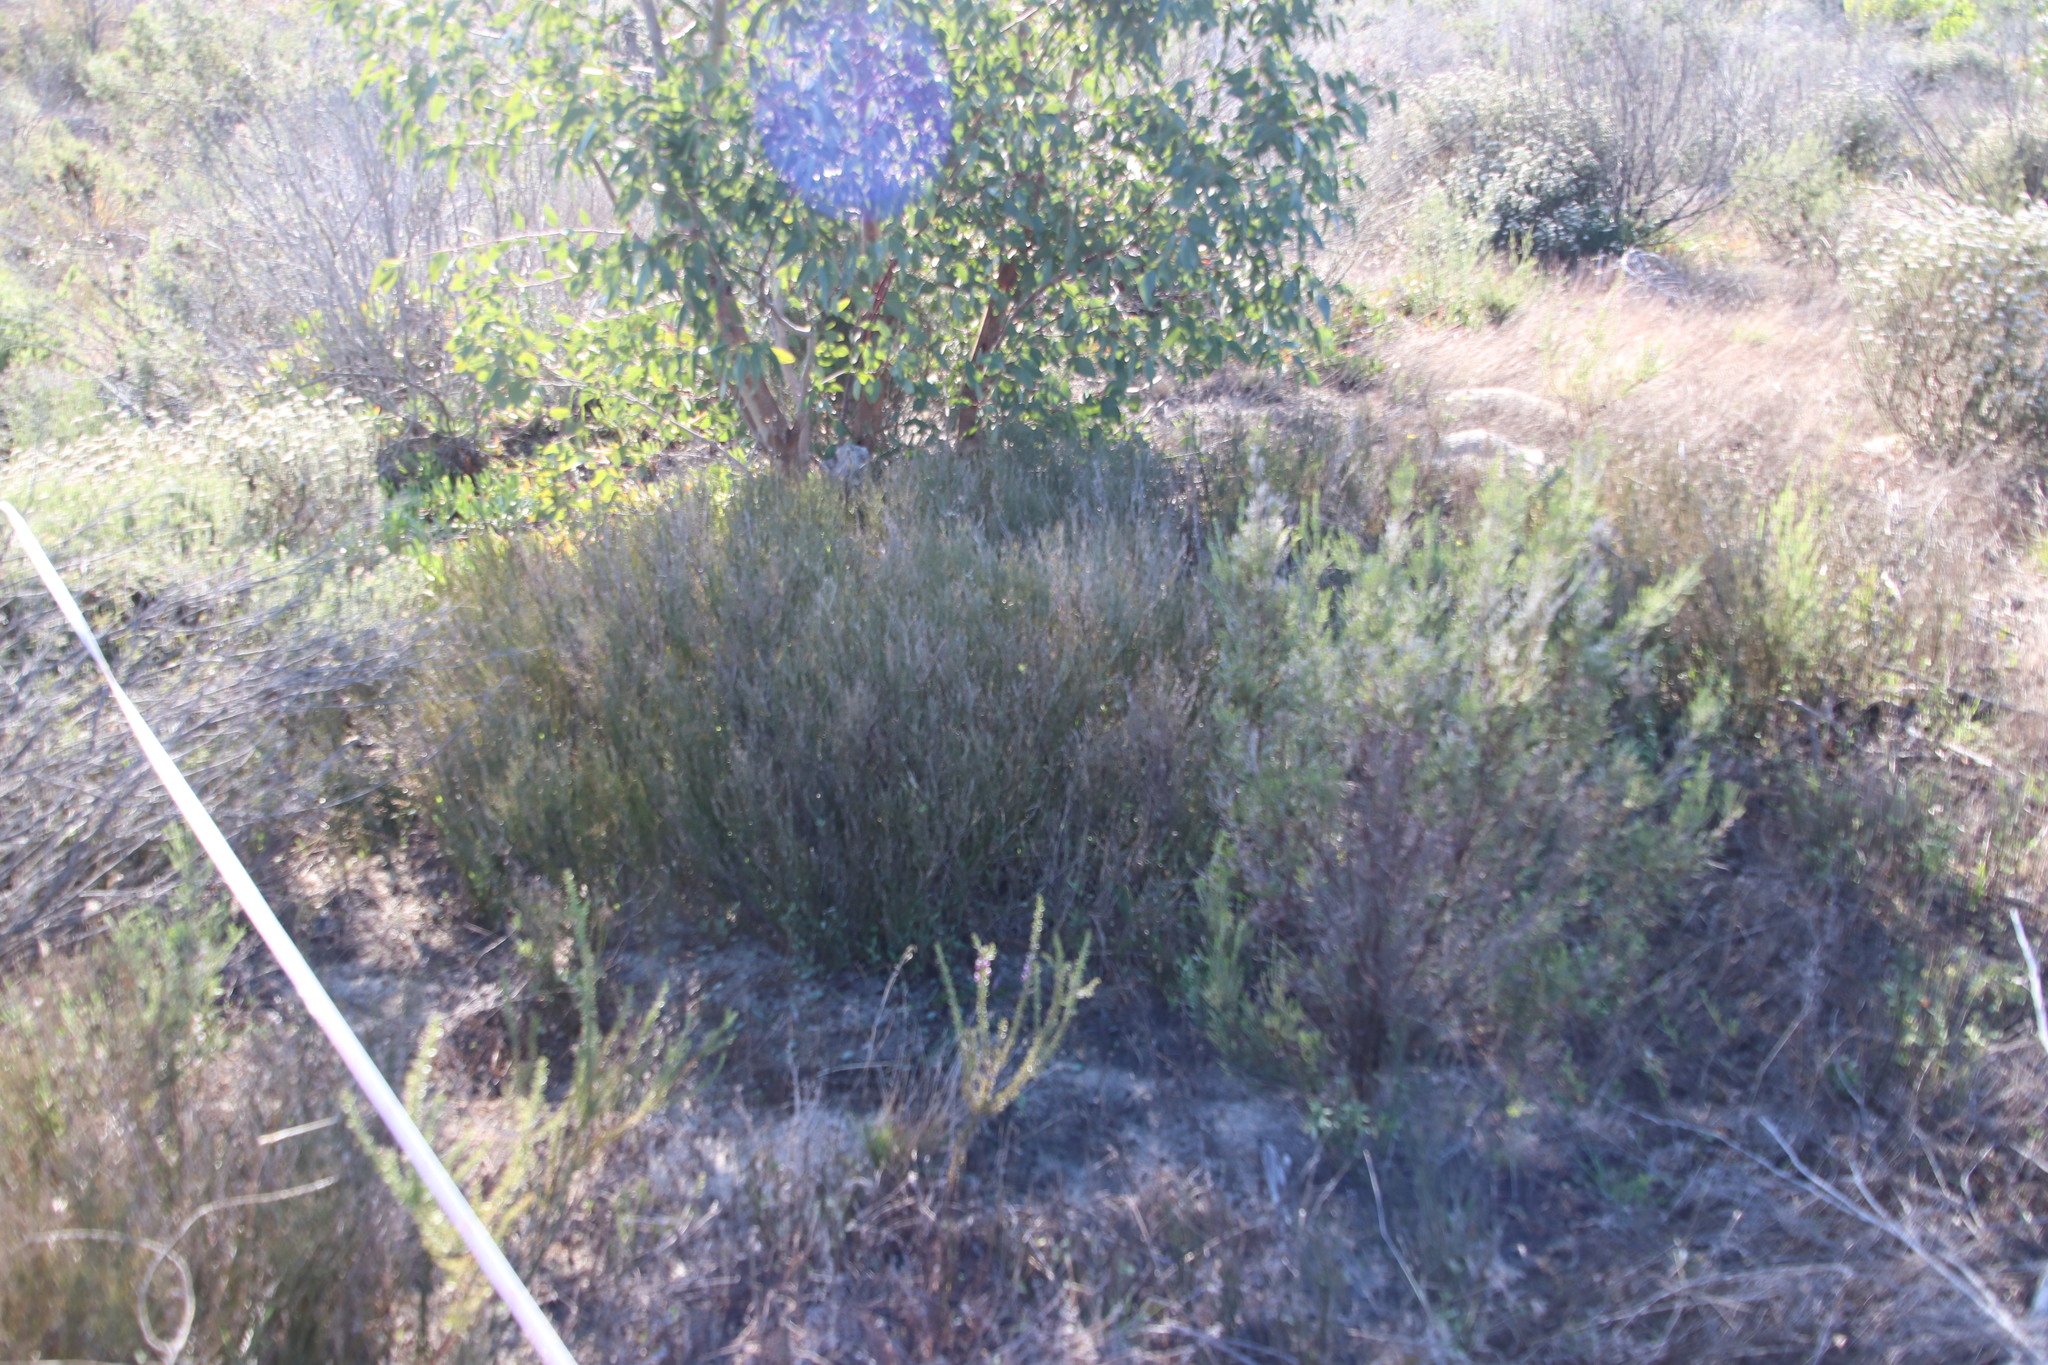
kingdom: Plantae
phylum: Tracheophyta
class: Magnoliopsida
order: Solanales
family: Montiniaceae
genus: Montinia
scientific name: Montinia caryophyllacea
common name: Wild clove-bush
